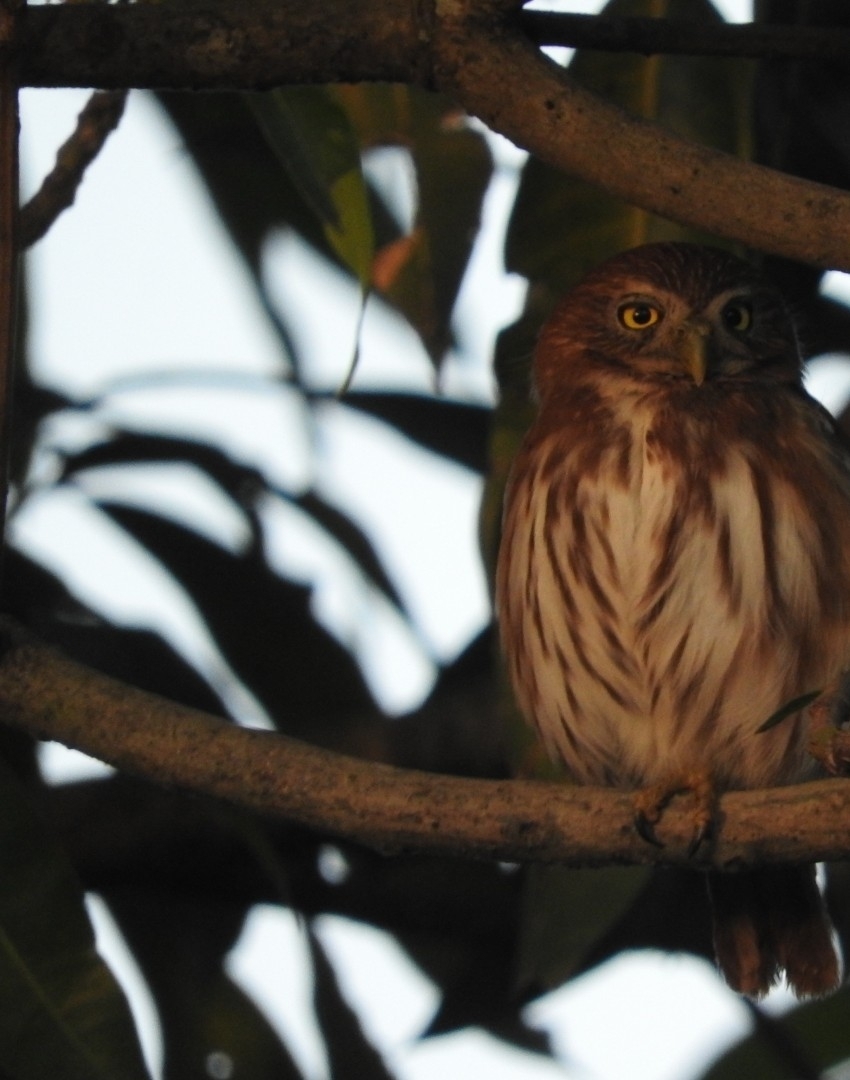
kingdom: Animalia
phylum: Chordata
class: Aves
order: Strigiformes
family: Strigidae
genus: Glaucidium
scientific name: Glaucidium brasilianum
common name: Ferruginous pygmy-owl
